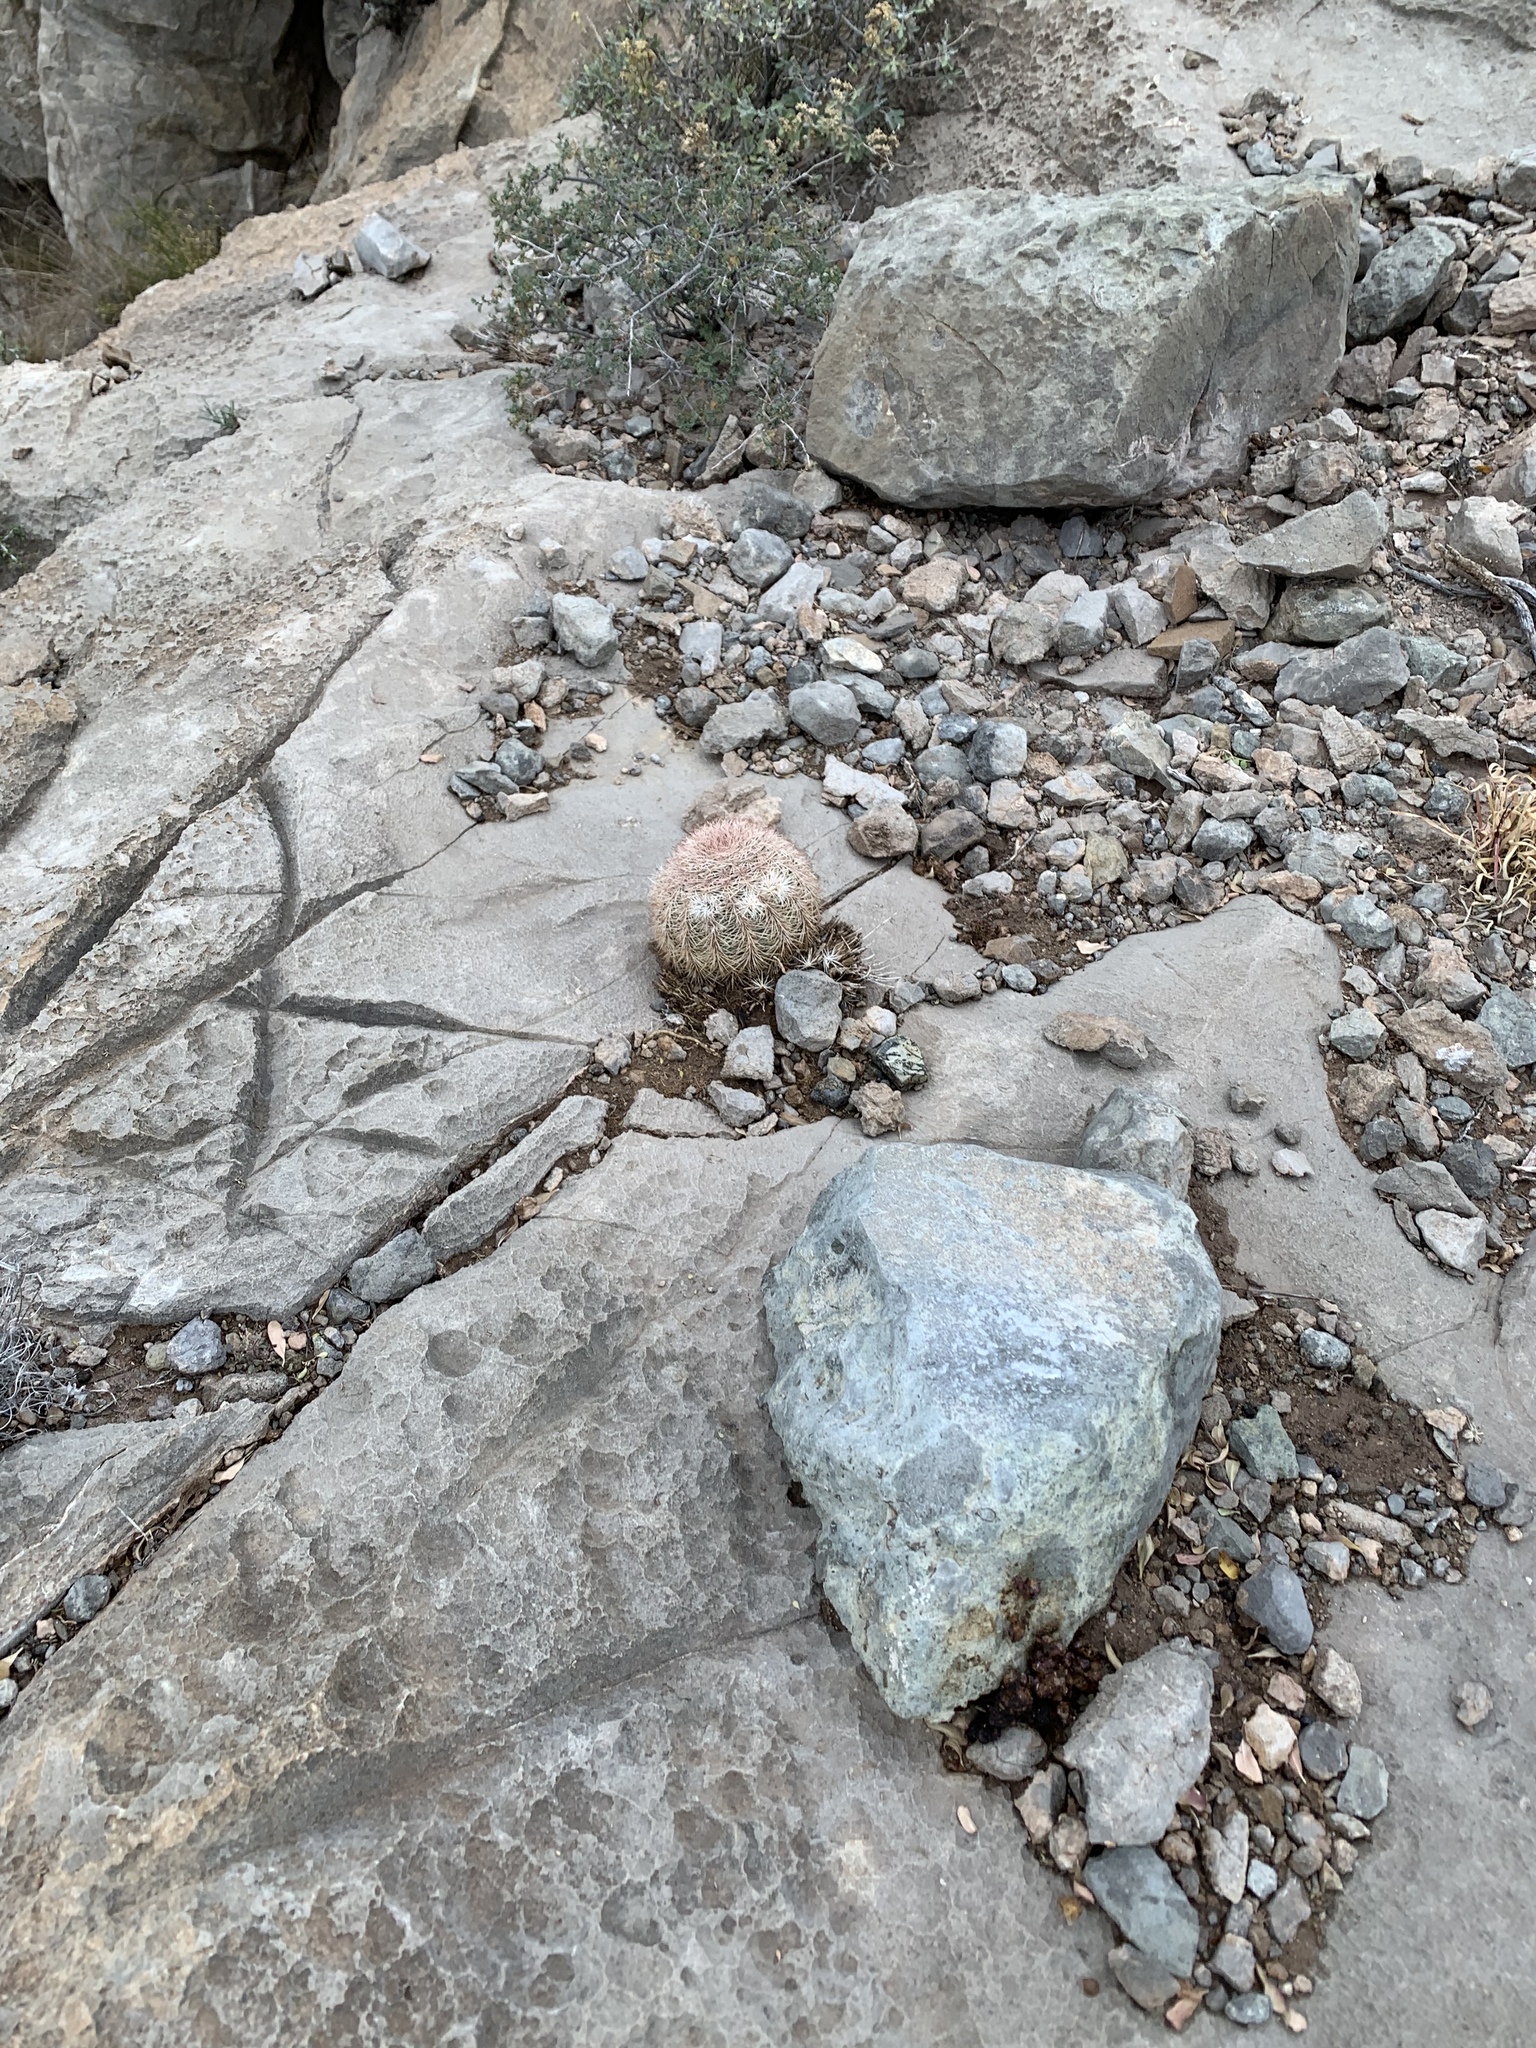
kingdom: Plantae
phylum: Tracheophyta
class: Magnoliopsida
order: Caryophyllales
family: Cactaceae
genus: Echinocereus
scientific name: Echinocereus dasyacanthus
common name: Spiny hedgehog cactus
